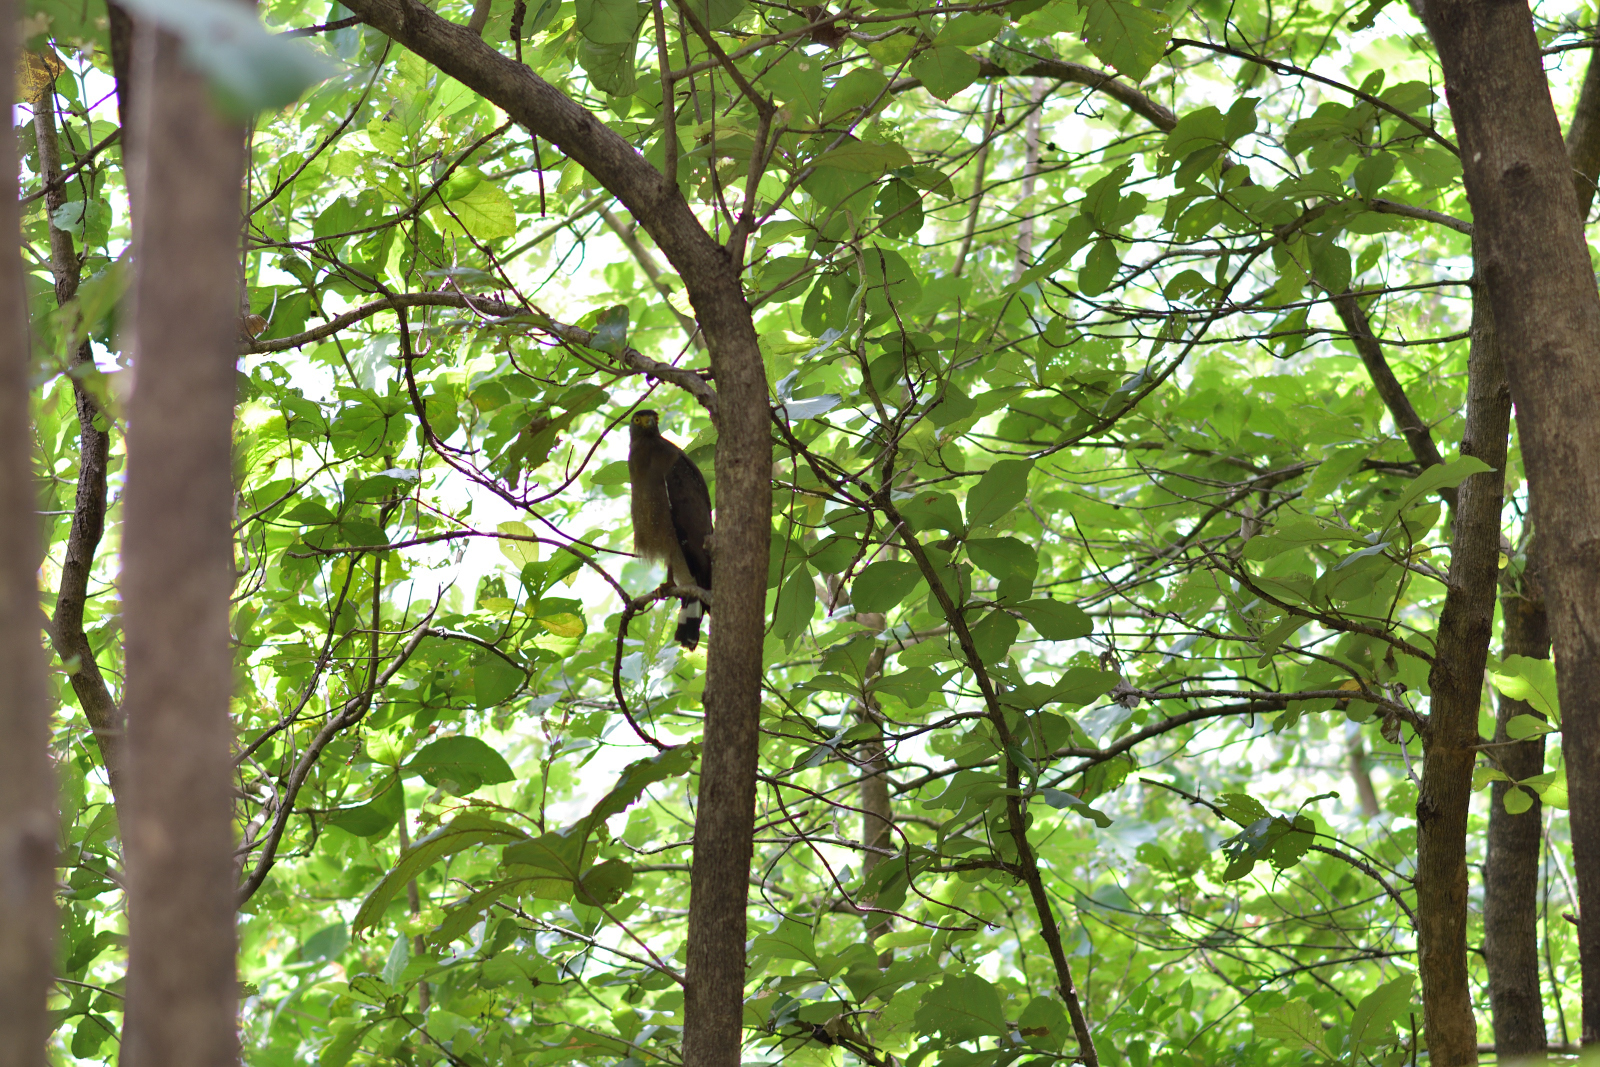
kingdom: Animalia
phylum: Chordata
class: Aves
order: Accipitriformes
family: Accipitridae
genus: Spilornis
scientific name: Spilornis cheela
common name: Crested serpent eagle
